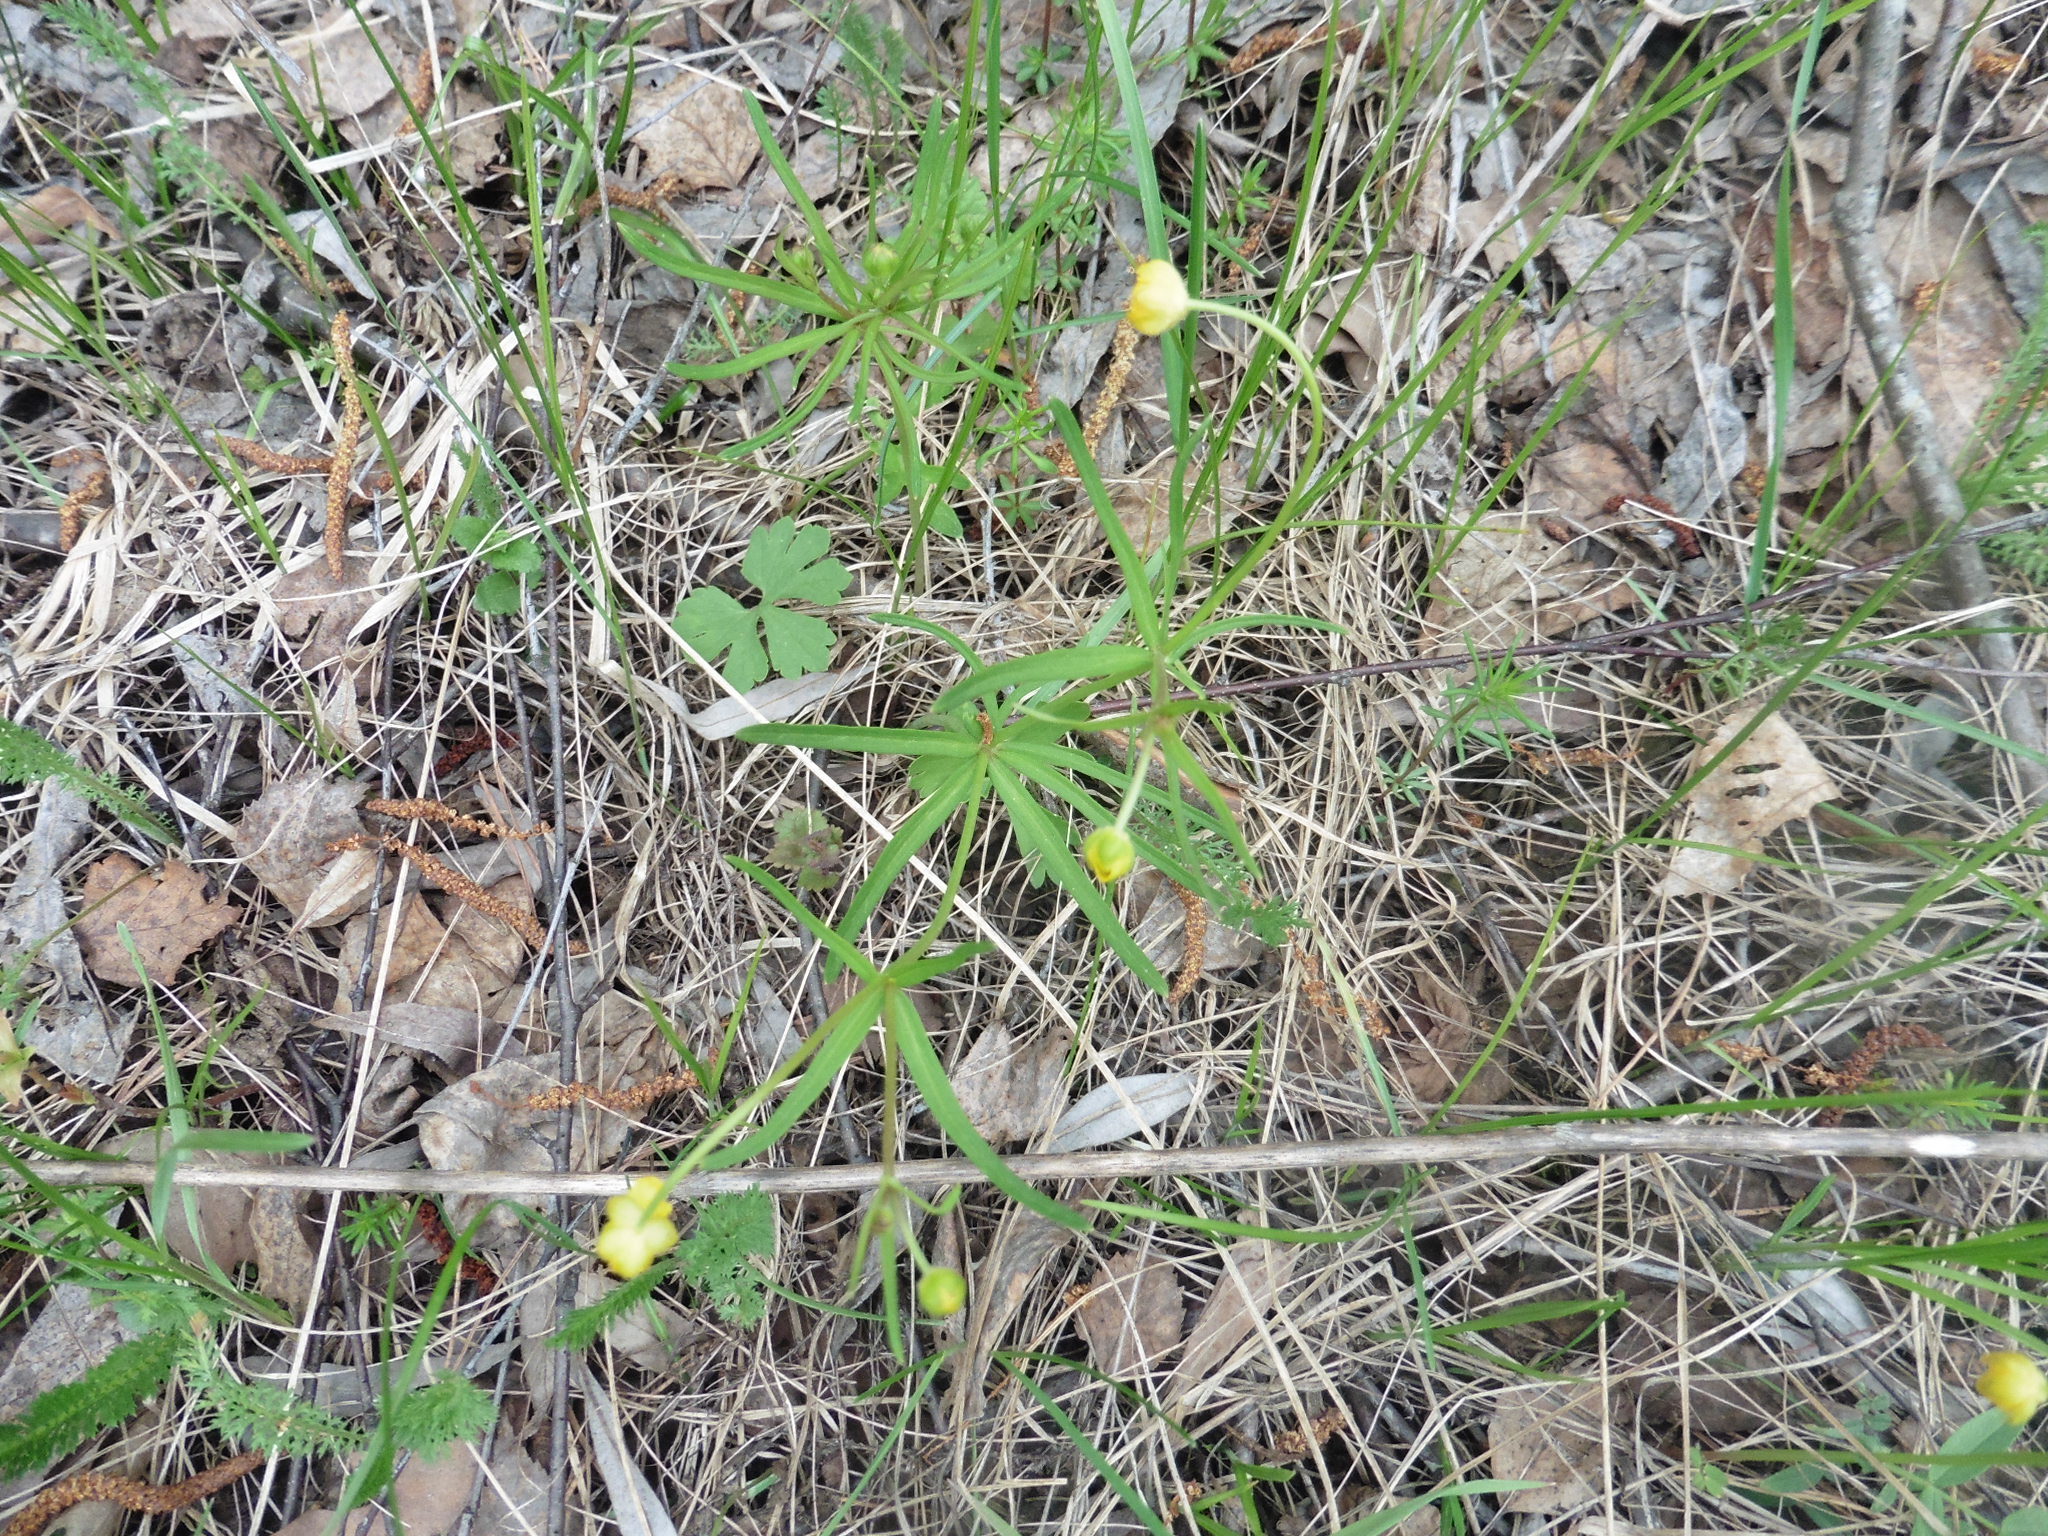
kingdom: Plantae
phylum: Tracheophyta
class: Magnoliopsida
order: Ranunculales
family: Ranunculaceae
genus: Ranunculus
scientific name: Ranunculus auricomus
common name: Goldilocks buttercup
